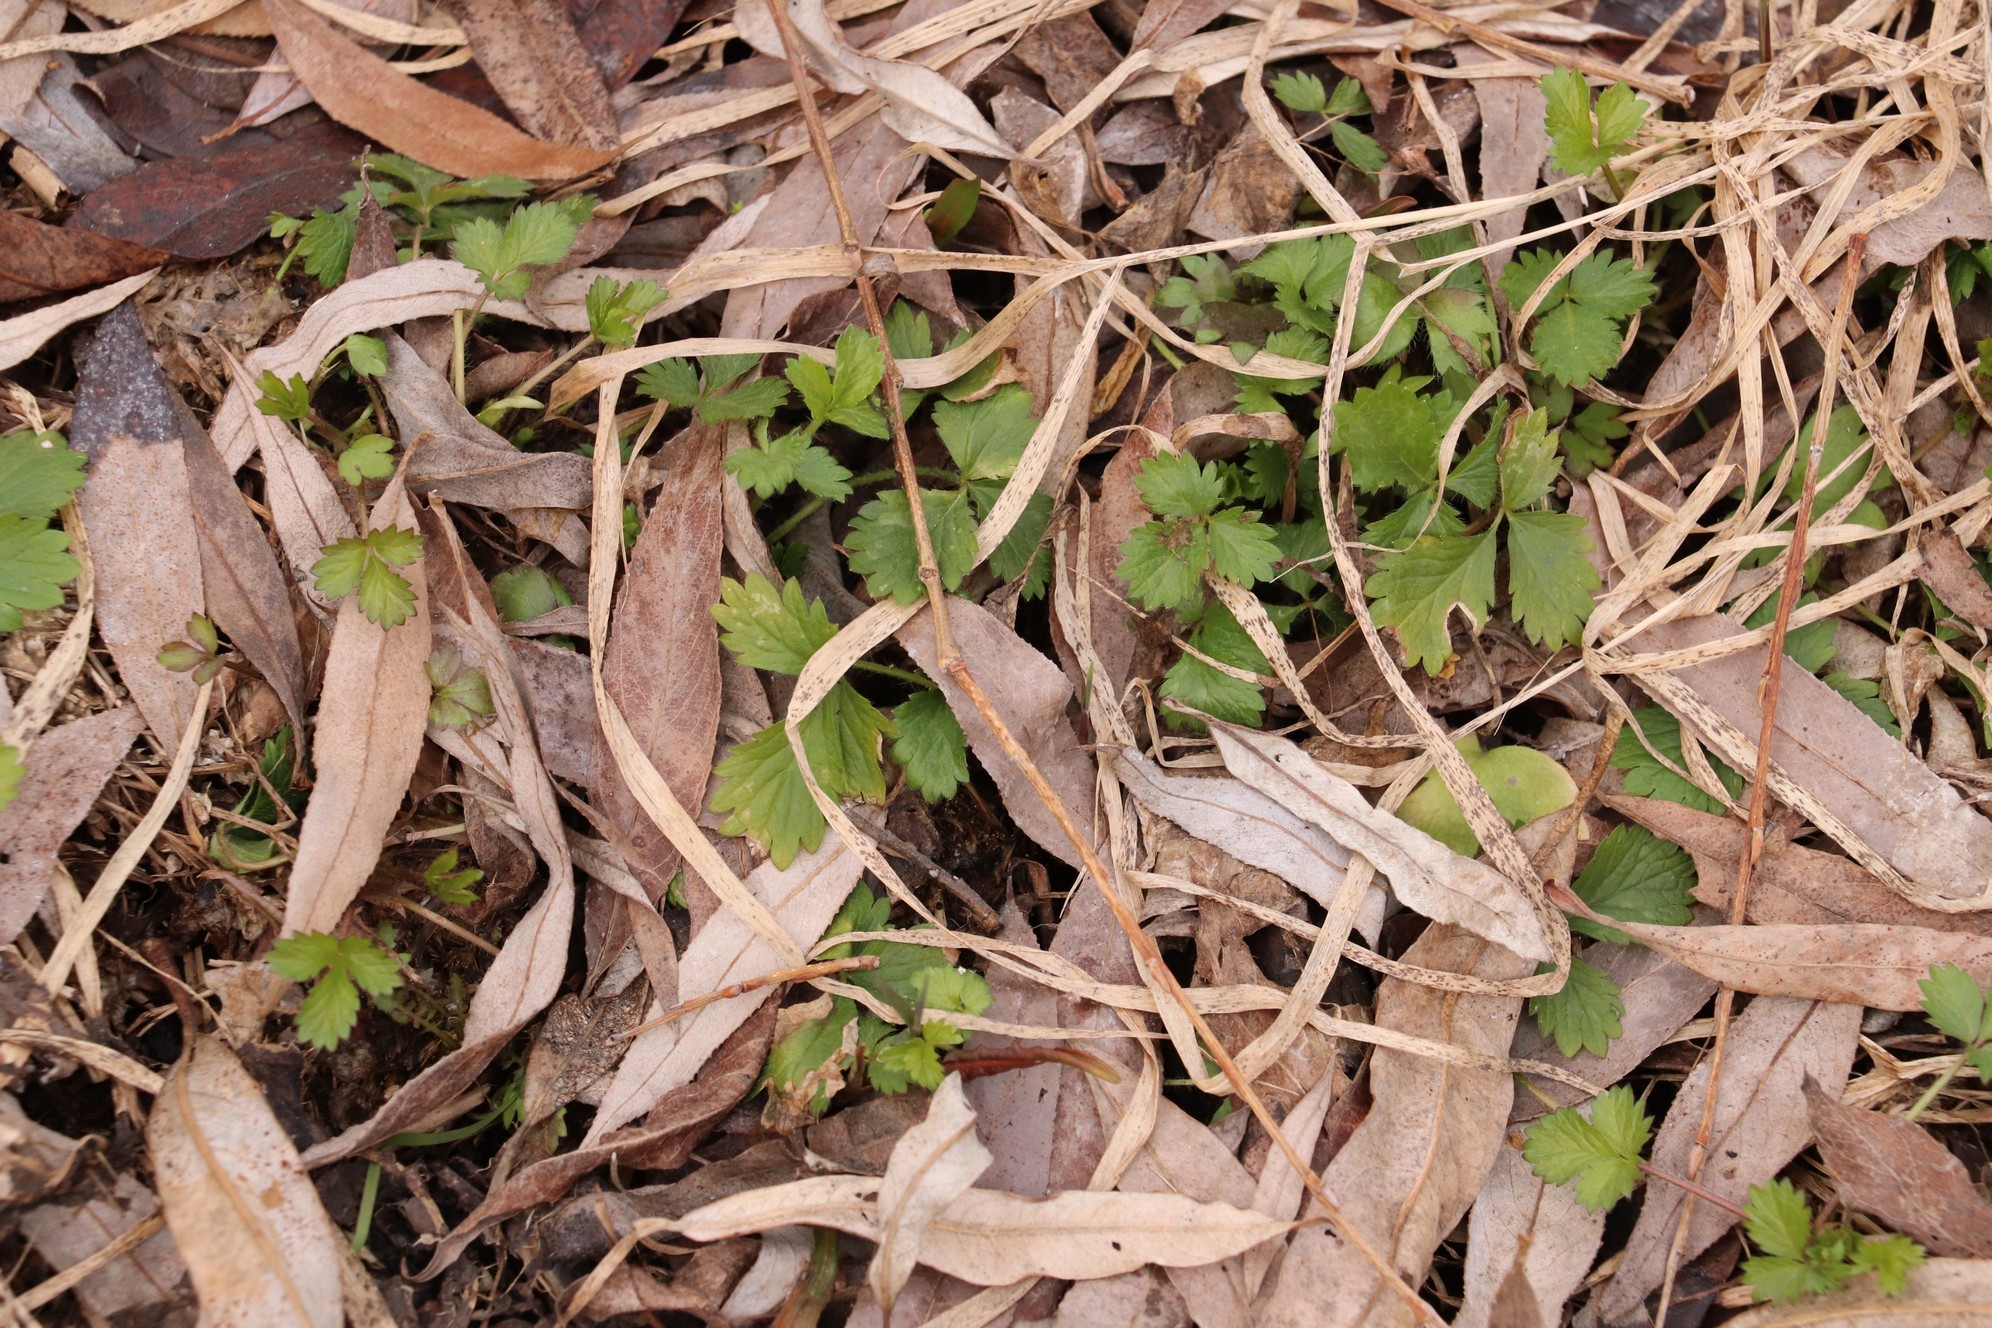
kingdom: Plantae
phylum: Tracheophyta
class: Magnoliopsida
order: Rosales
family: Rosaceae
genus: Potentilla
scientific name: Potentilla norvegica
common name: Ternate-leaved cinquefoil
